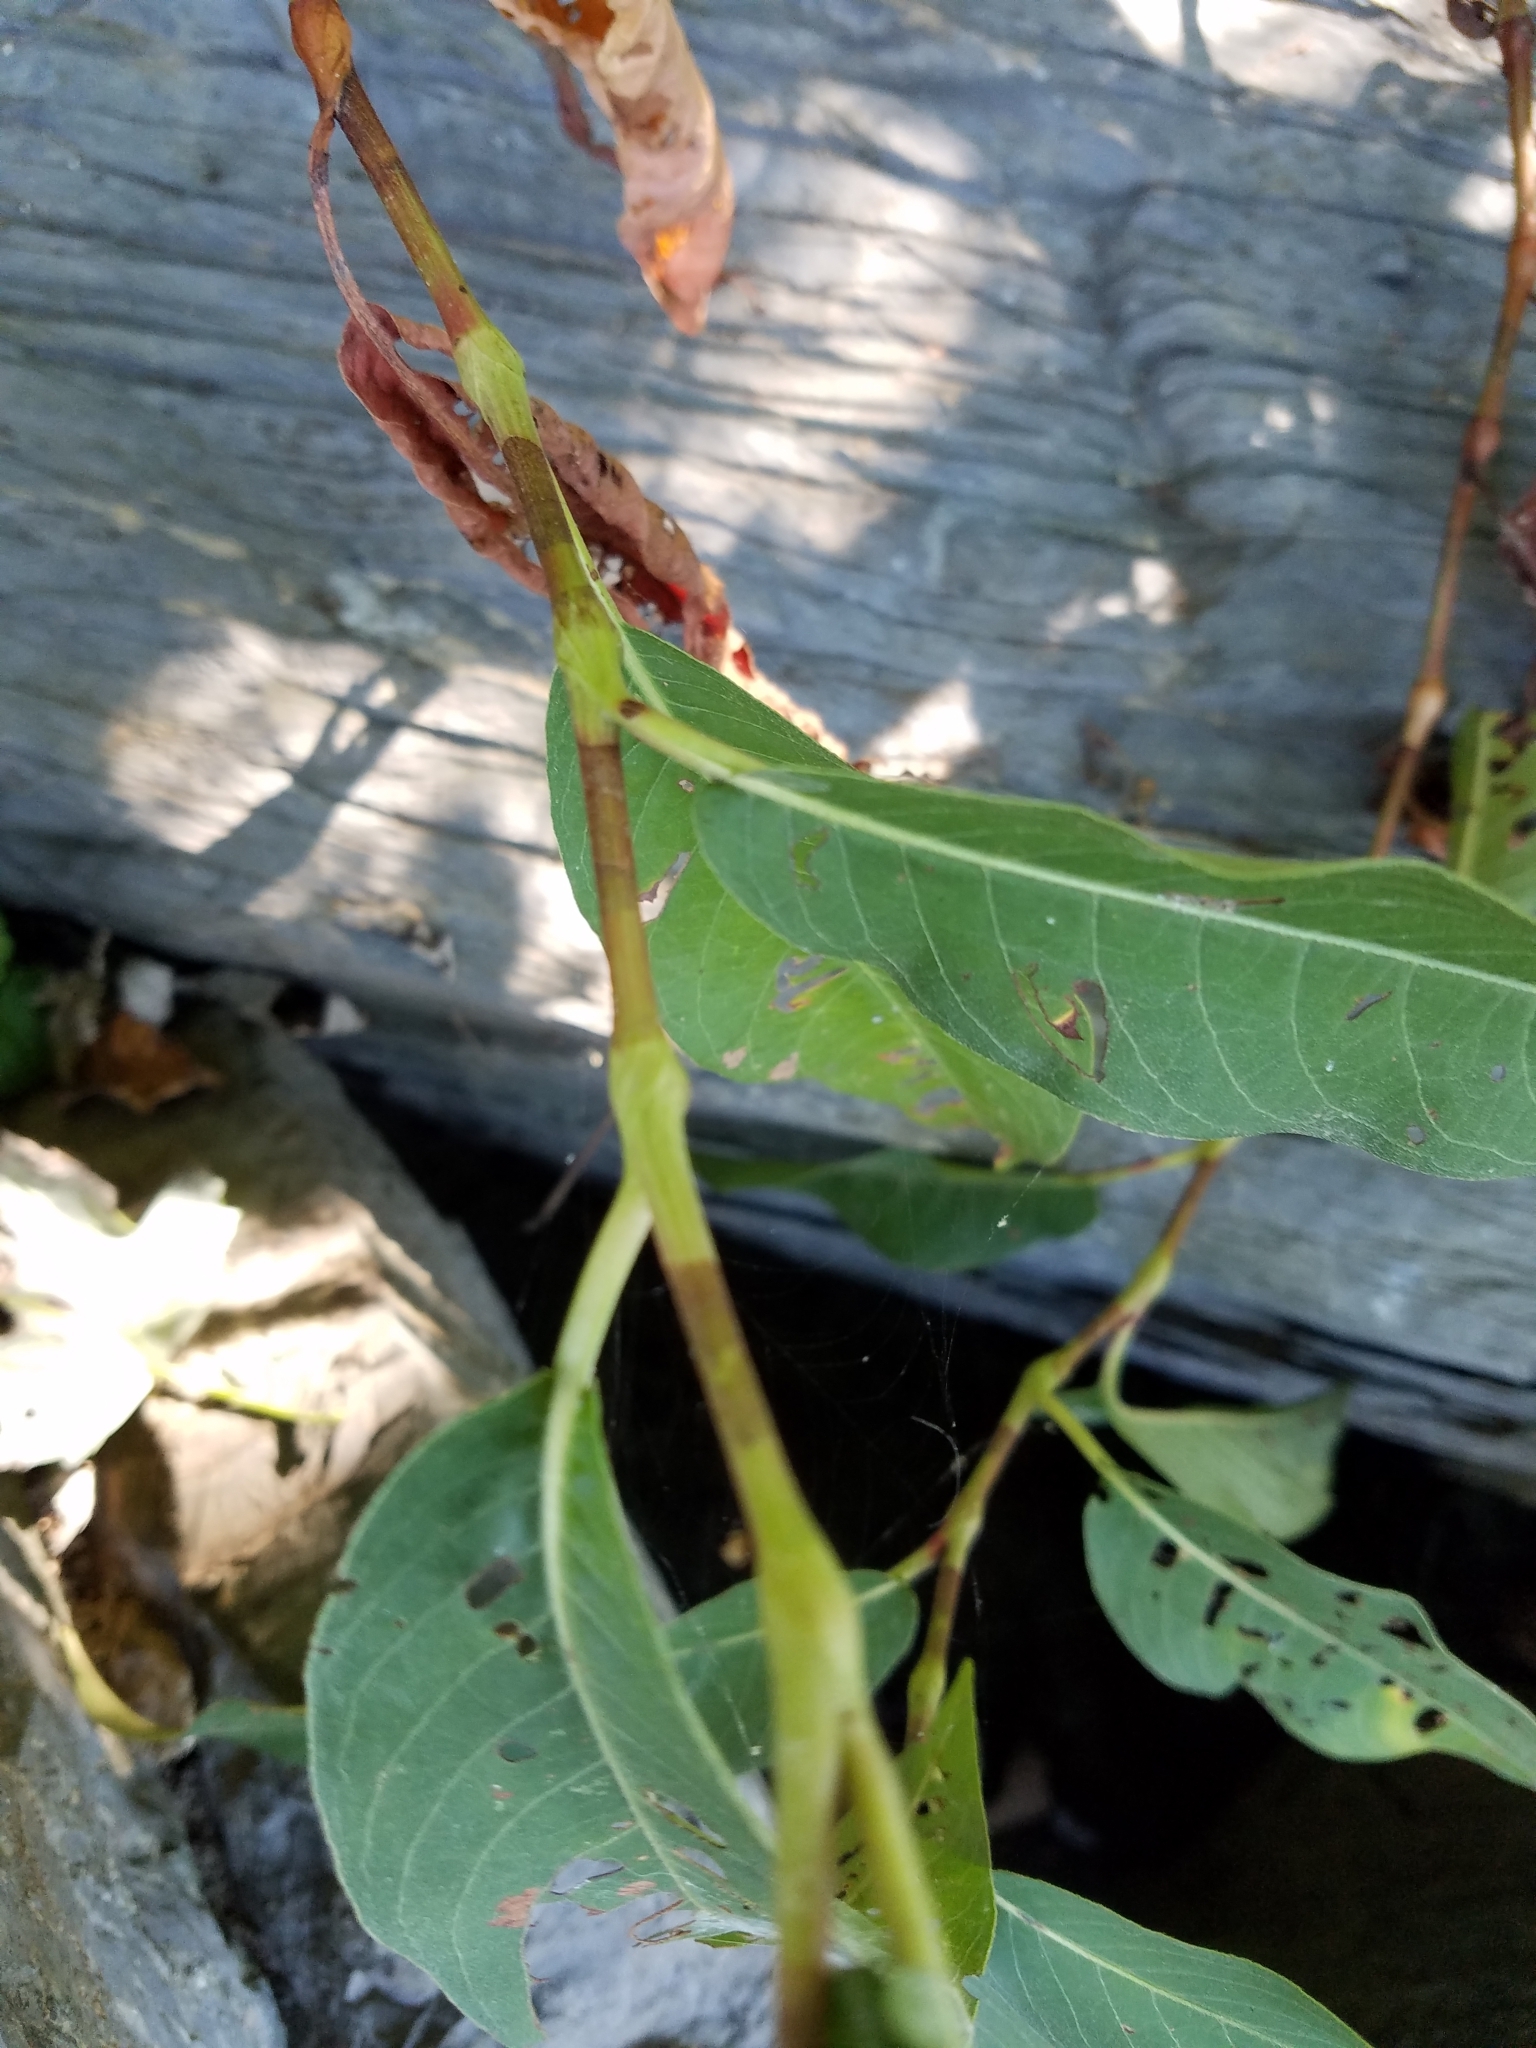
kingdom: Plantae
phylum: Tracheophyta
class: Magnoliopsida
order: Caryophyllales
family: Polygonaceae
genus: Persicaria
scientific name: Persicaria amphibia
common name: Amphibious bistort
